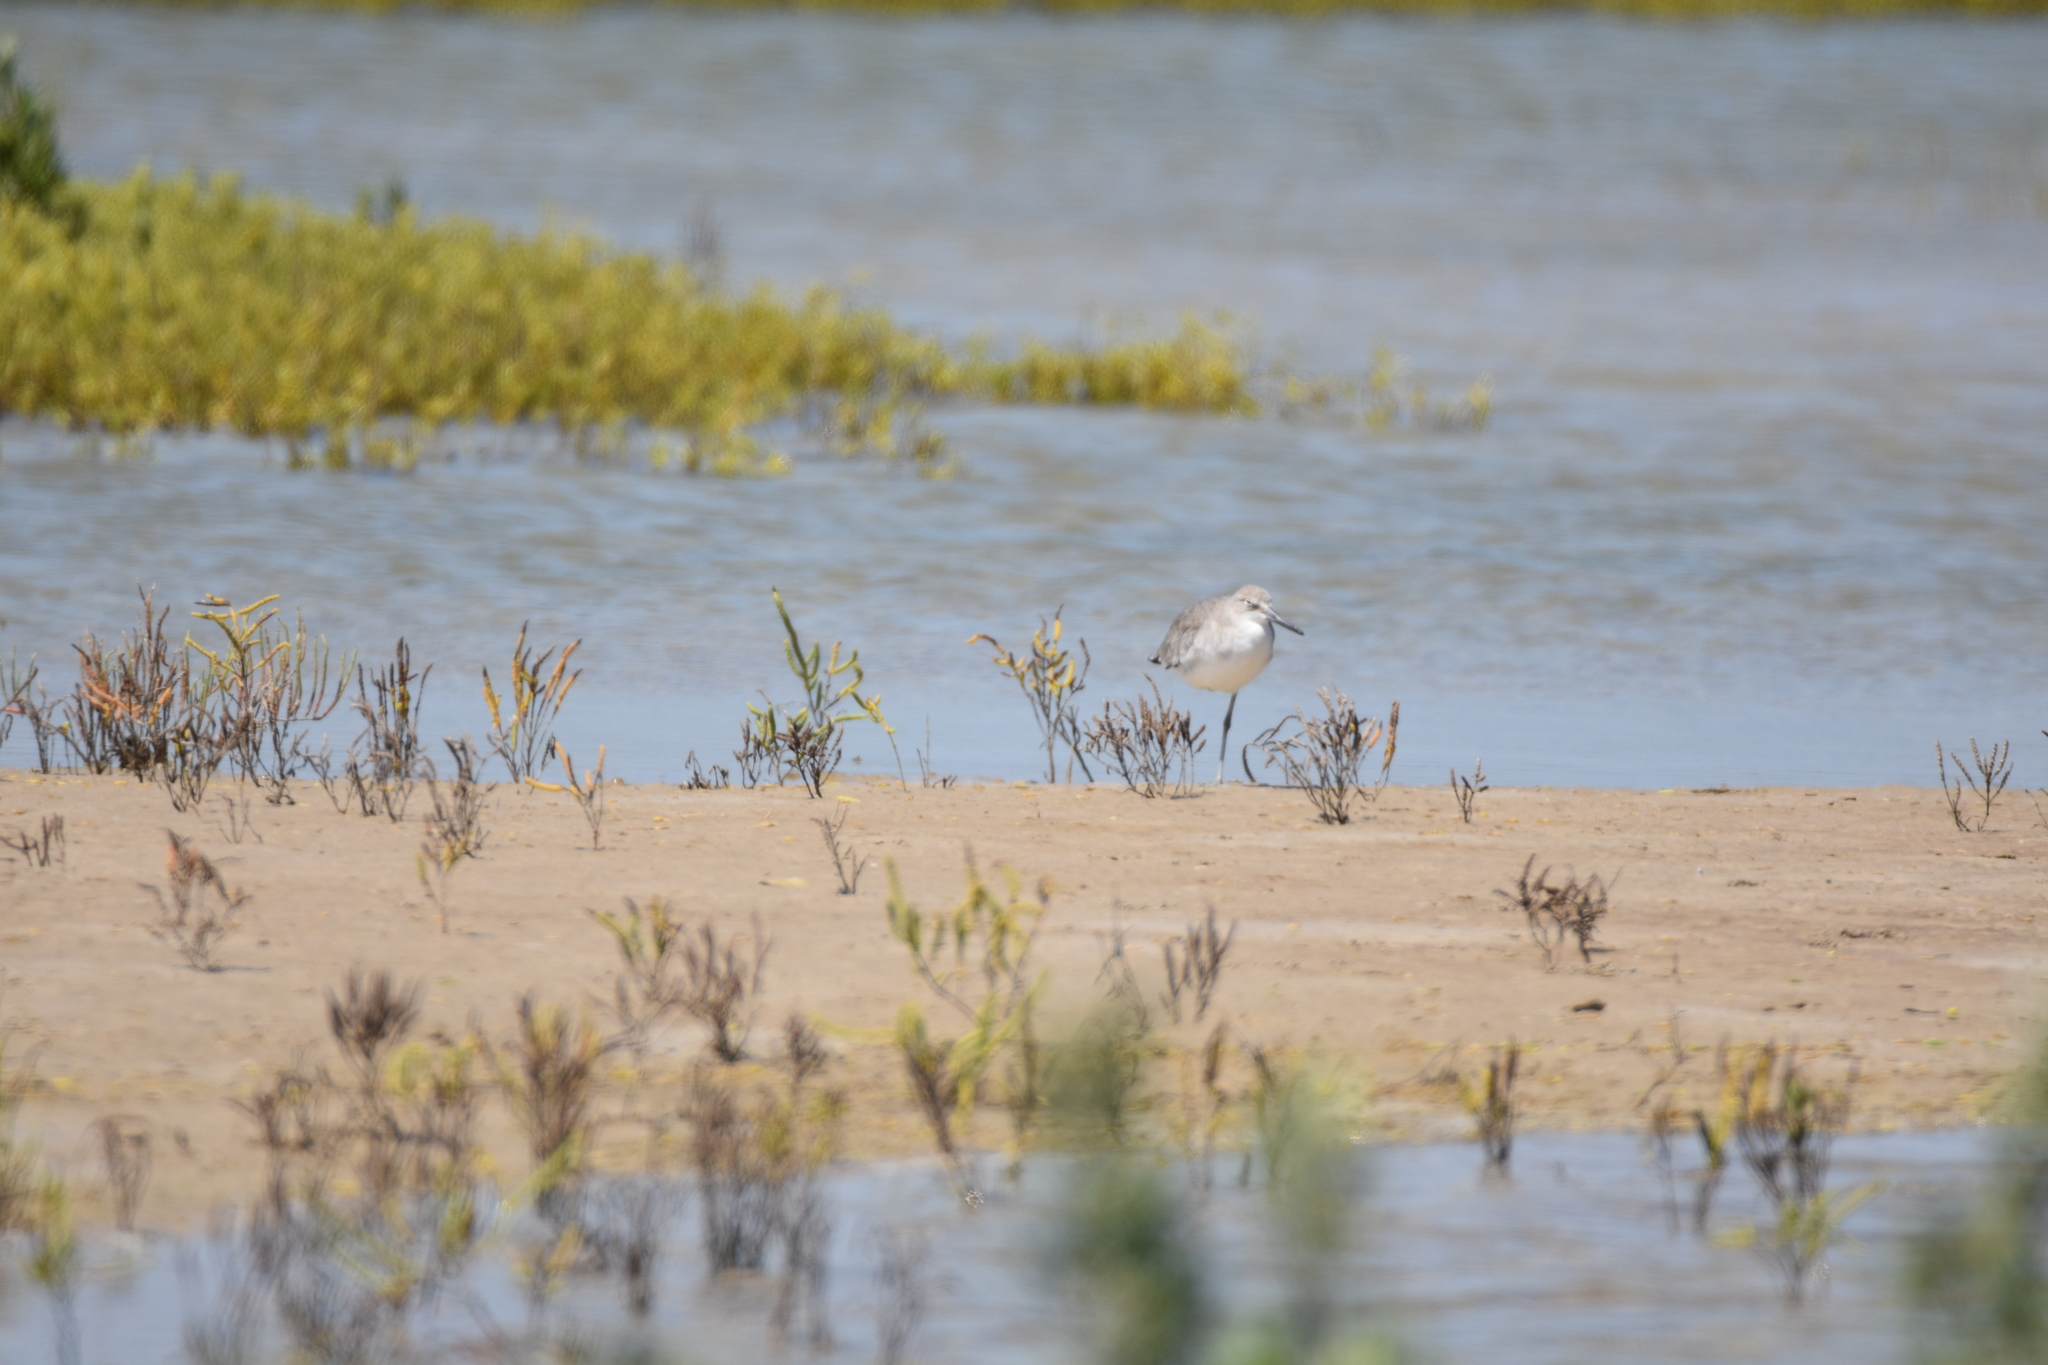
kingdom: Animalia
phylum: Chordata
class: Aves
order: Charadriiformes
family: Scolopacidae
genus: Tringa
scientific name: Tringa semipalmata
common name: Willet
